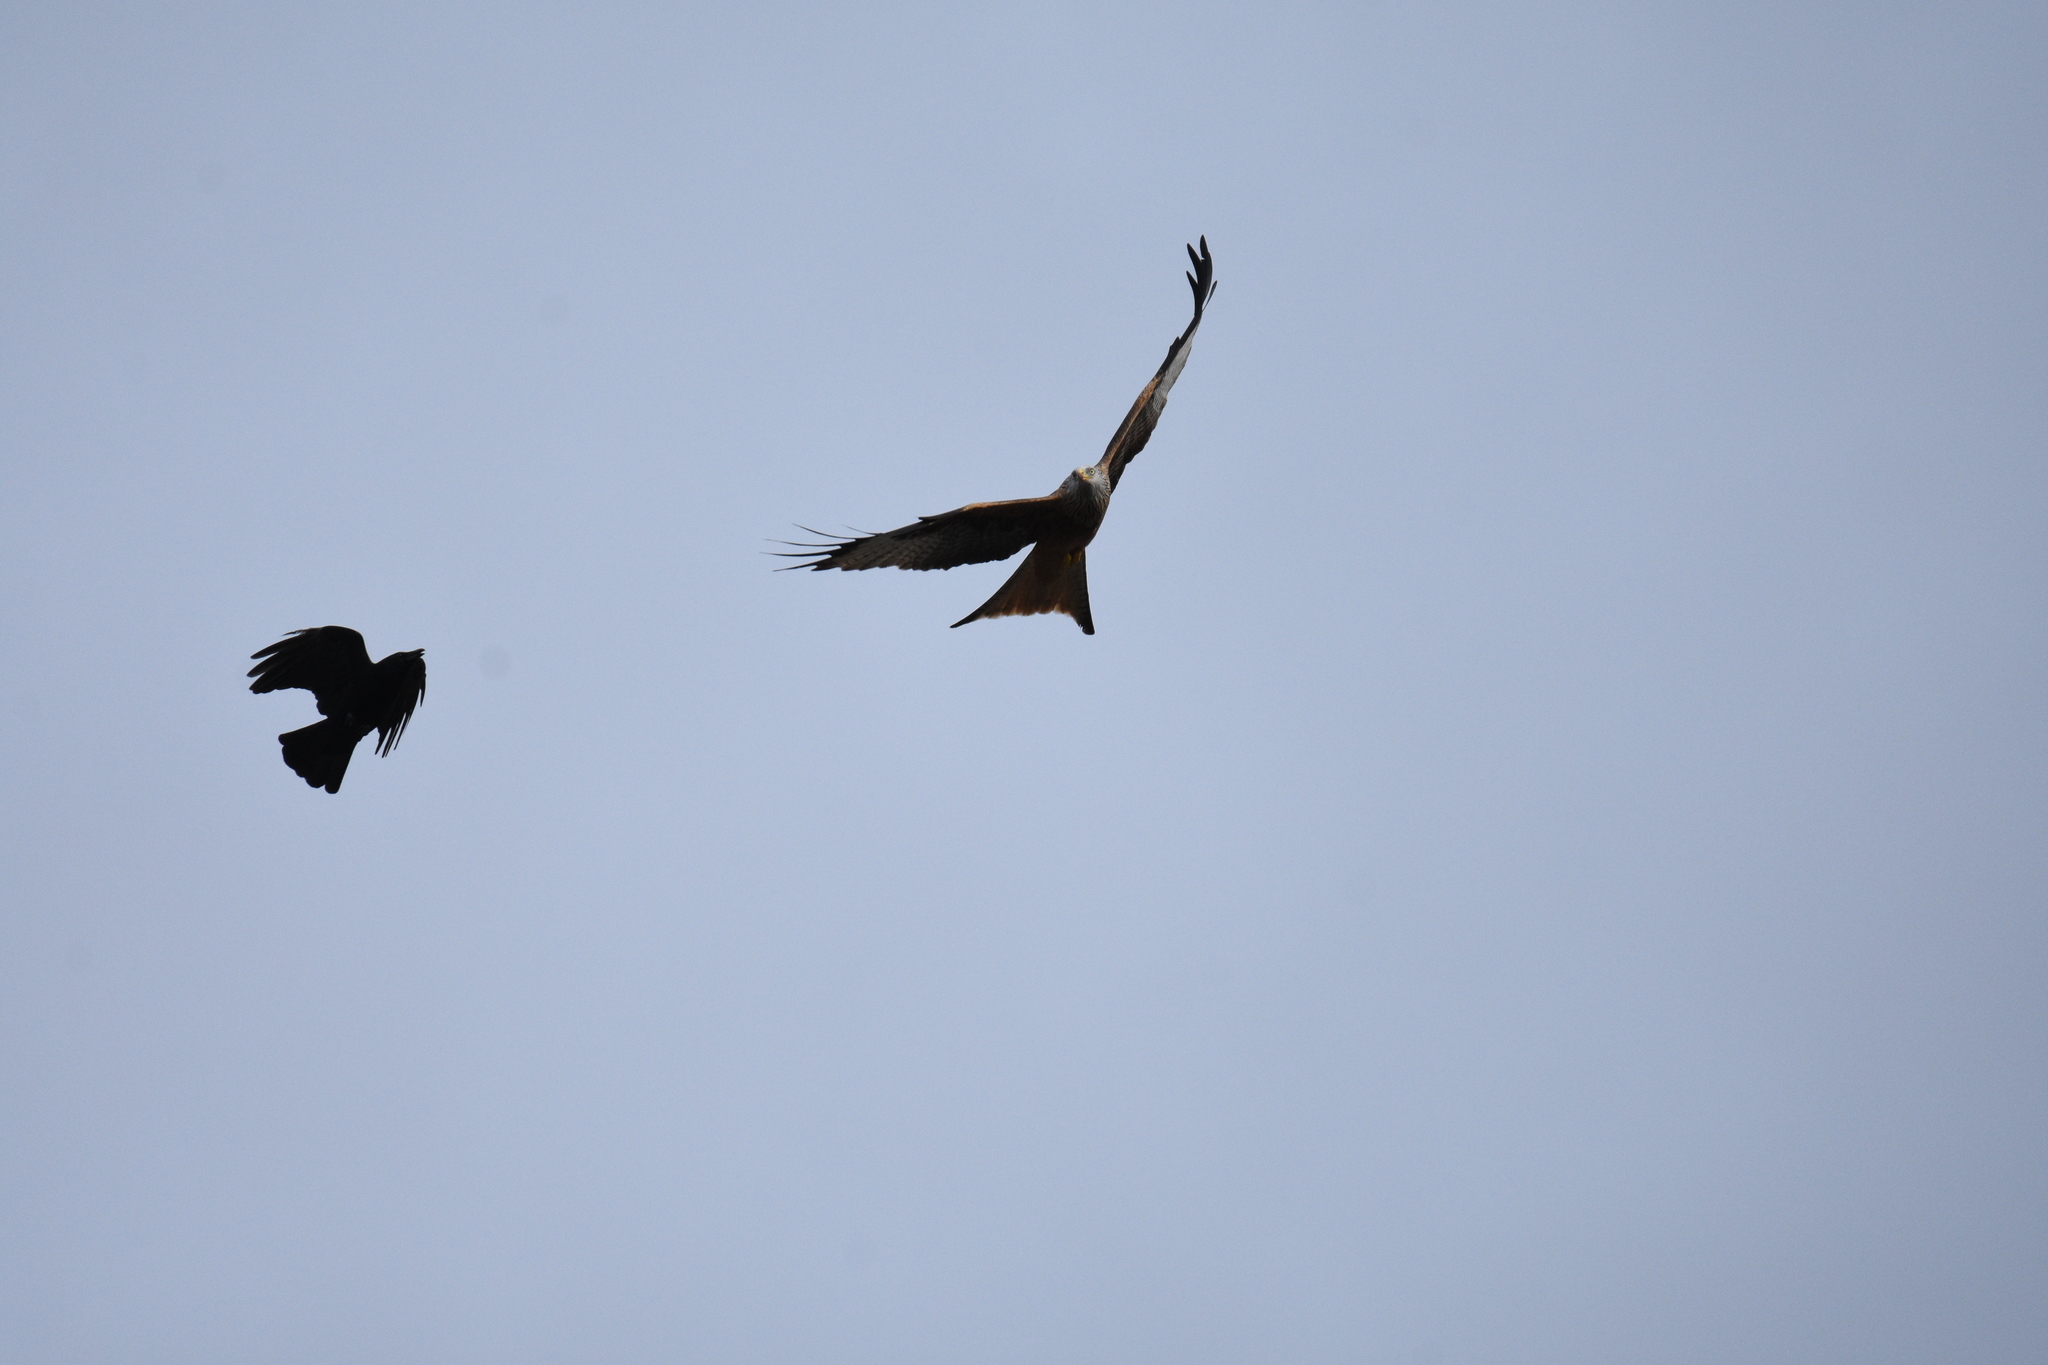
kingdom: Animalia
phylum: Chordata
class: Aves
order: Passeriformes
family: Corvidae
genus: Corvus
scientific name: Corvus corone
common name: Carrion crow
